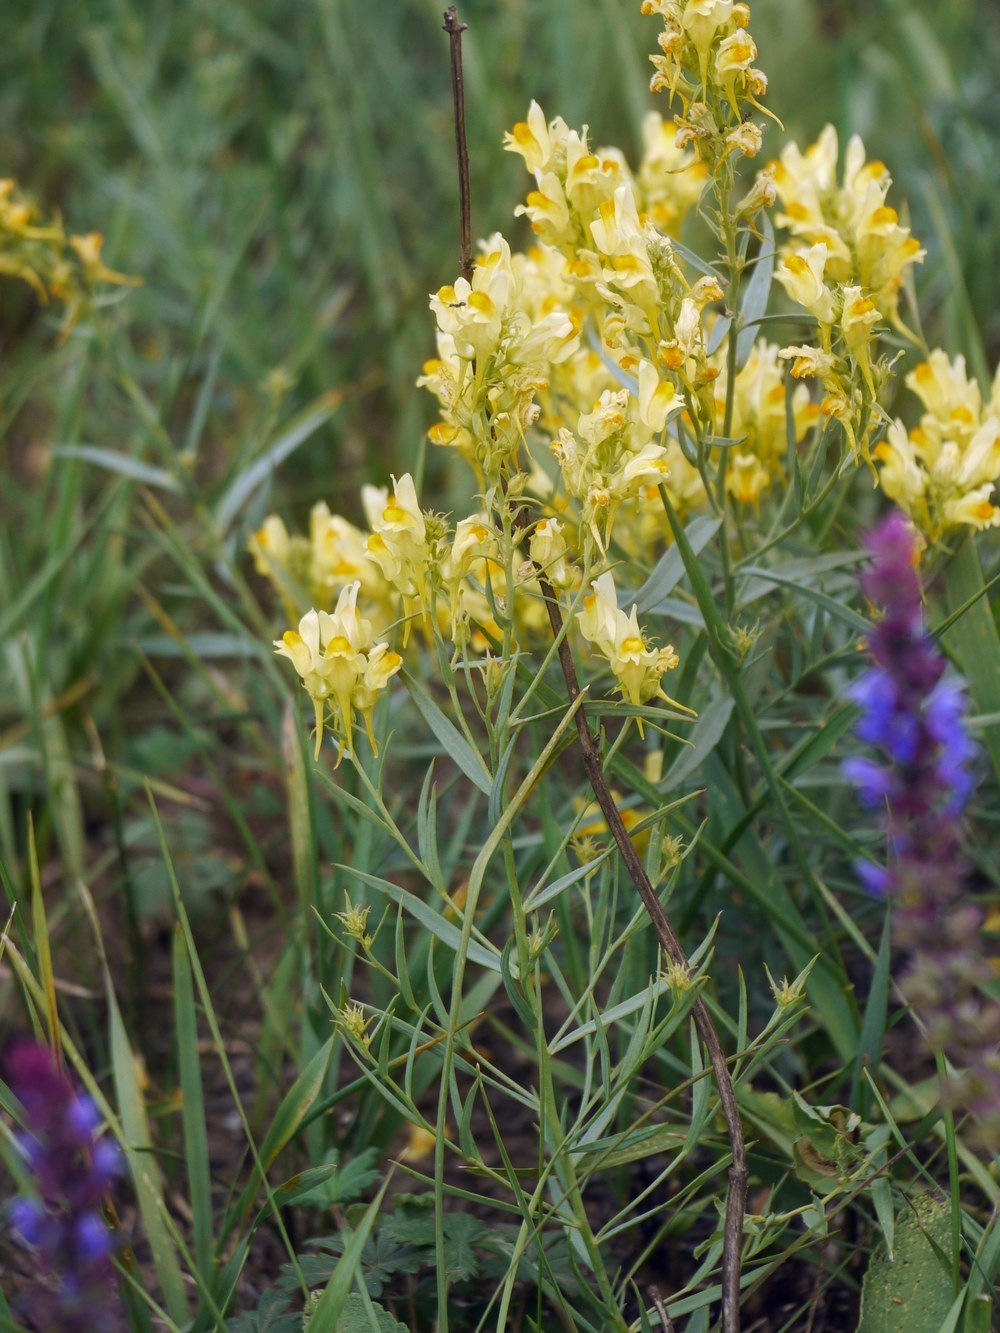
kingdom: Plantae
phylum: Tracheophyta
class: Magnoliopsida
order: Lamiales
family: Plantaginaceae
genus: Linaria
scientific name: Linaria vulgaris
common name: Butter and eggs
